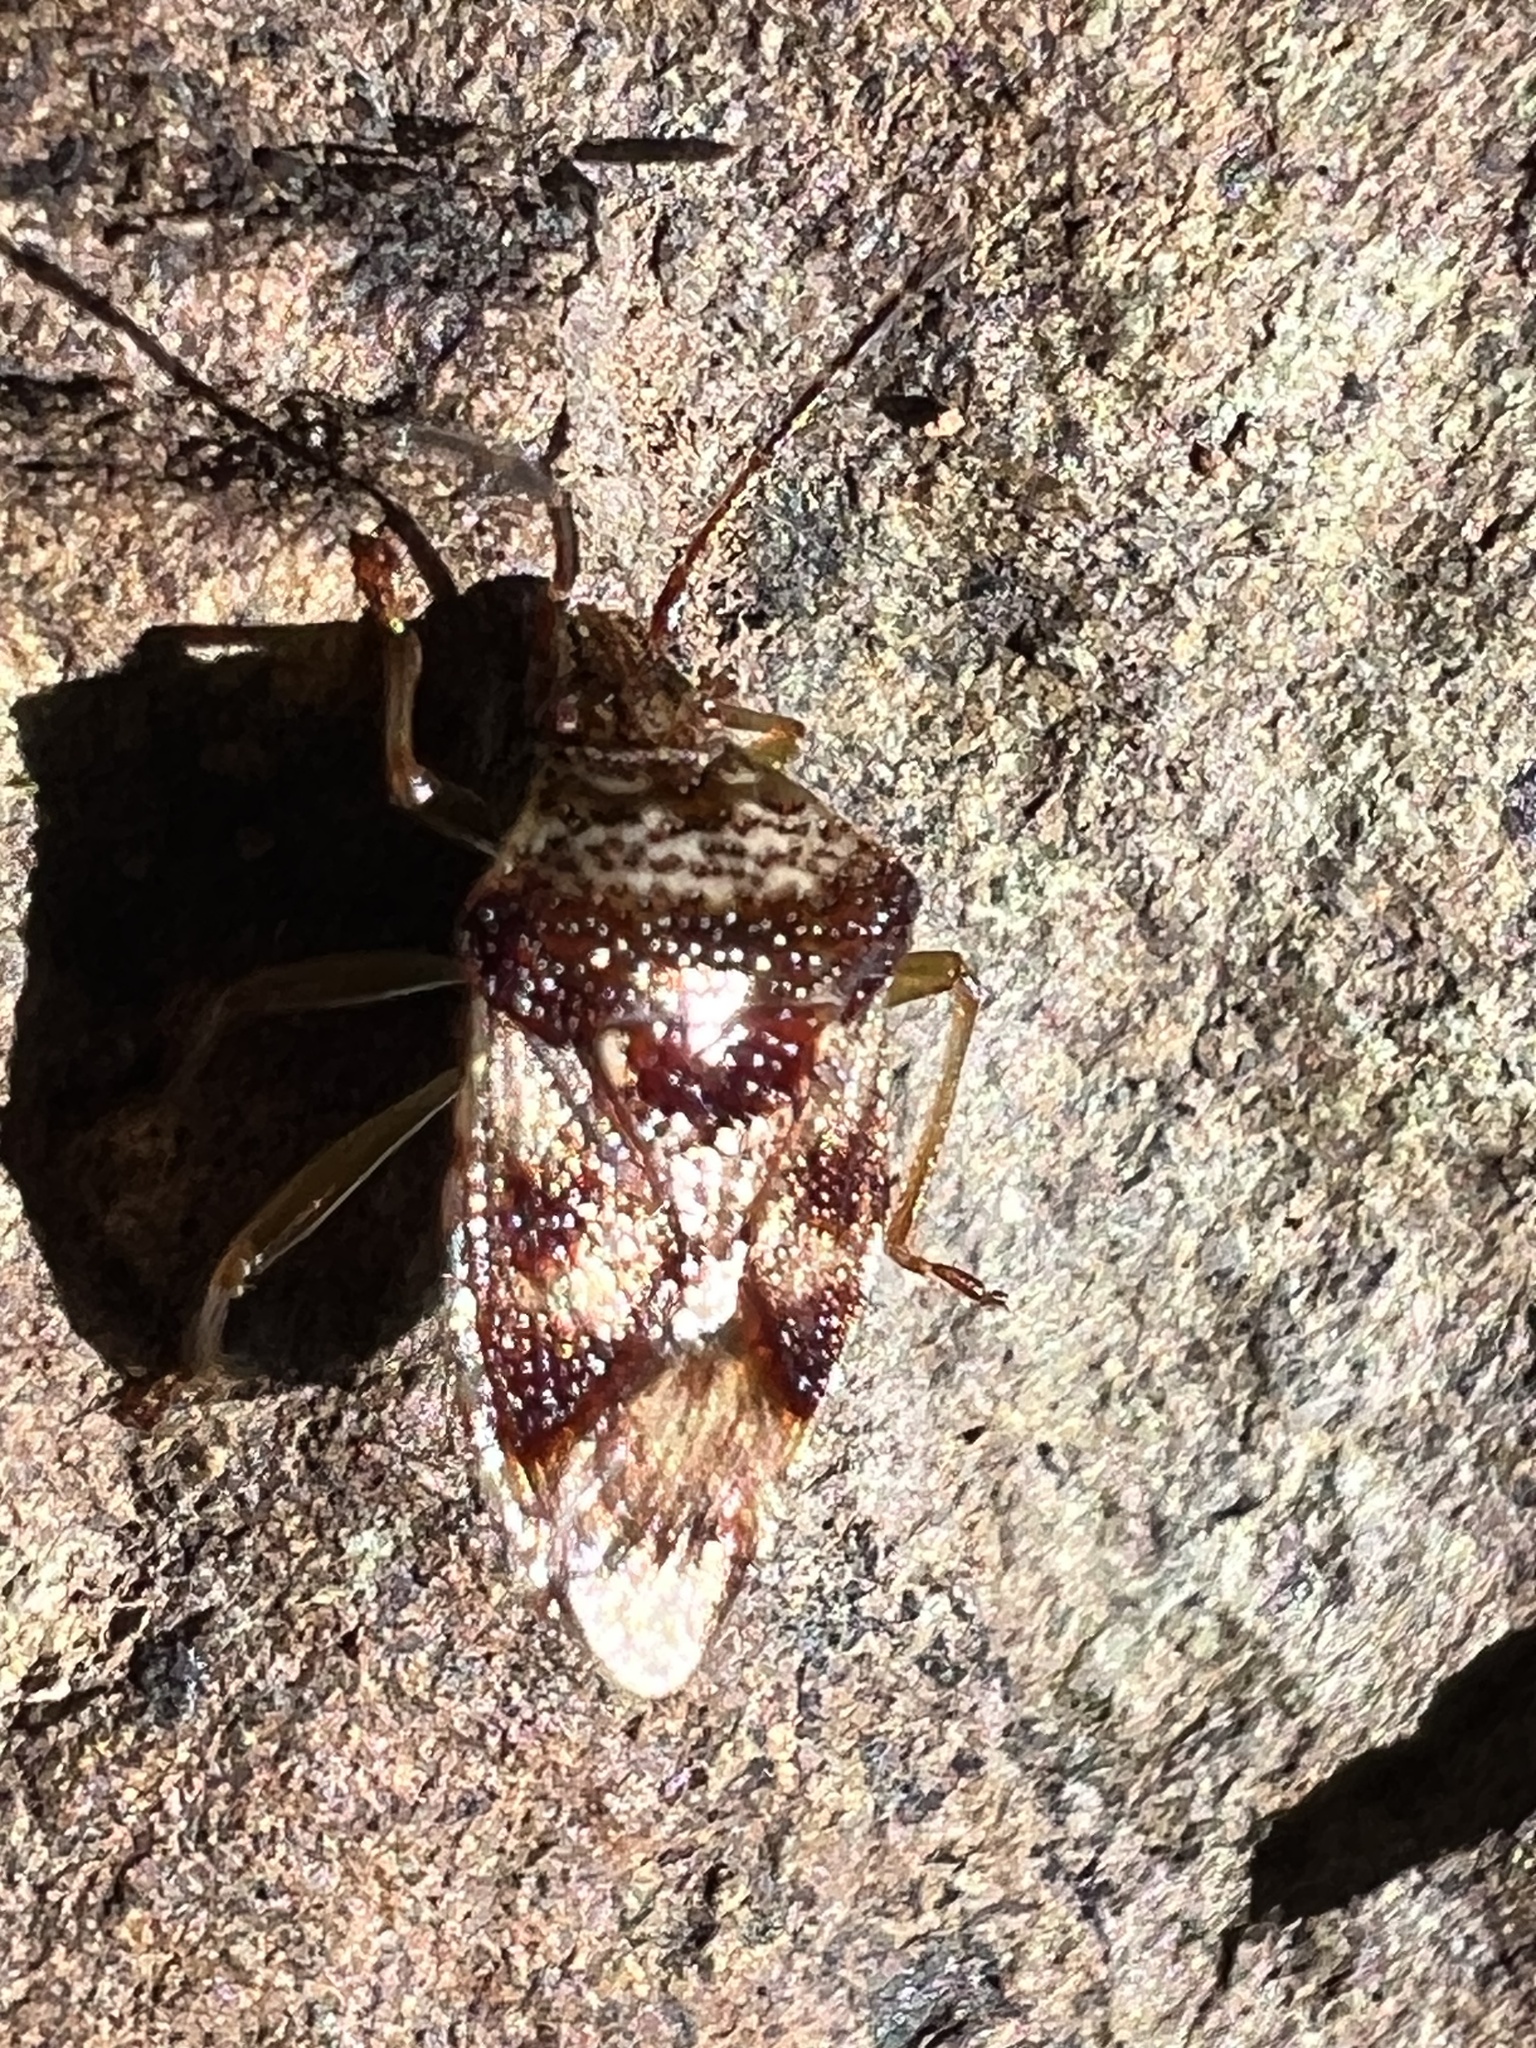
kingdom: Animalia
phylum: Arthropoda
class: Insecta
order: Hemiptera
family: Acanthosomatidae
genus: Elasmucha
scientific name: Elasmucha lateralis
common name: Shield bug
